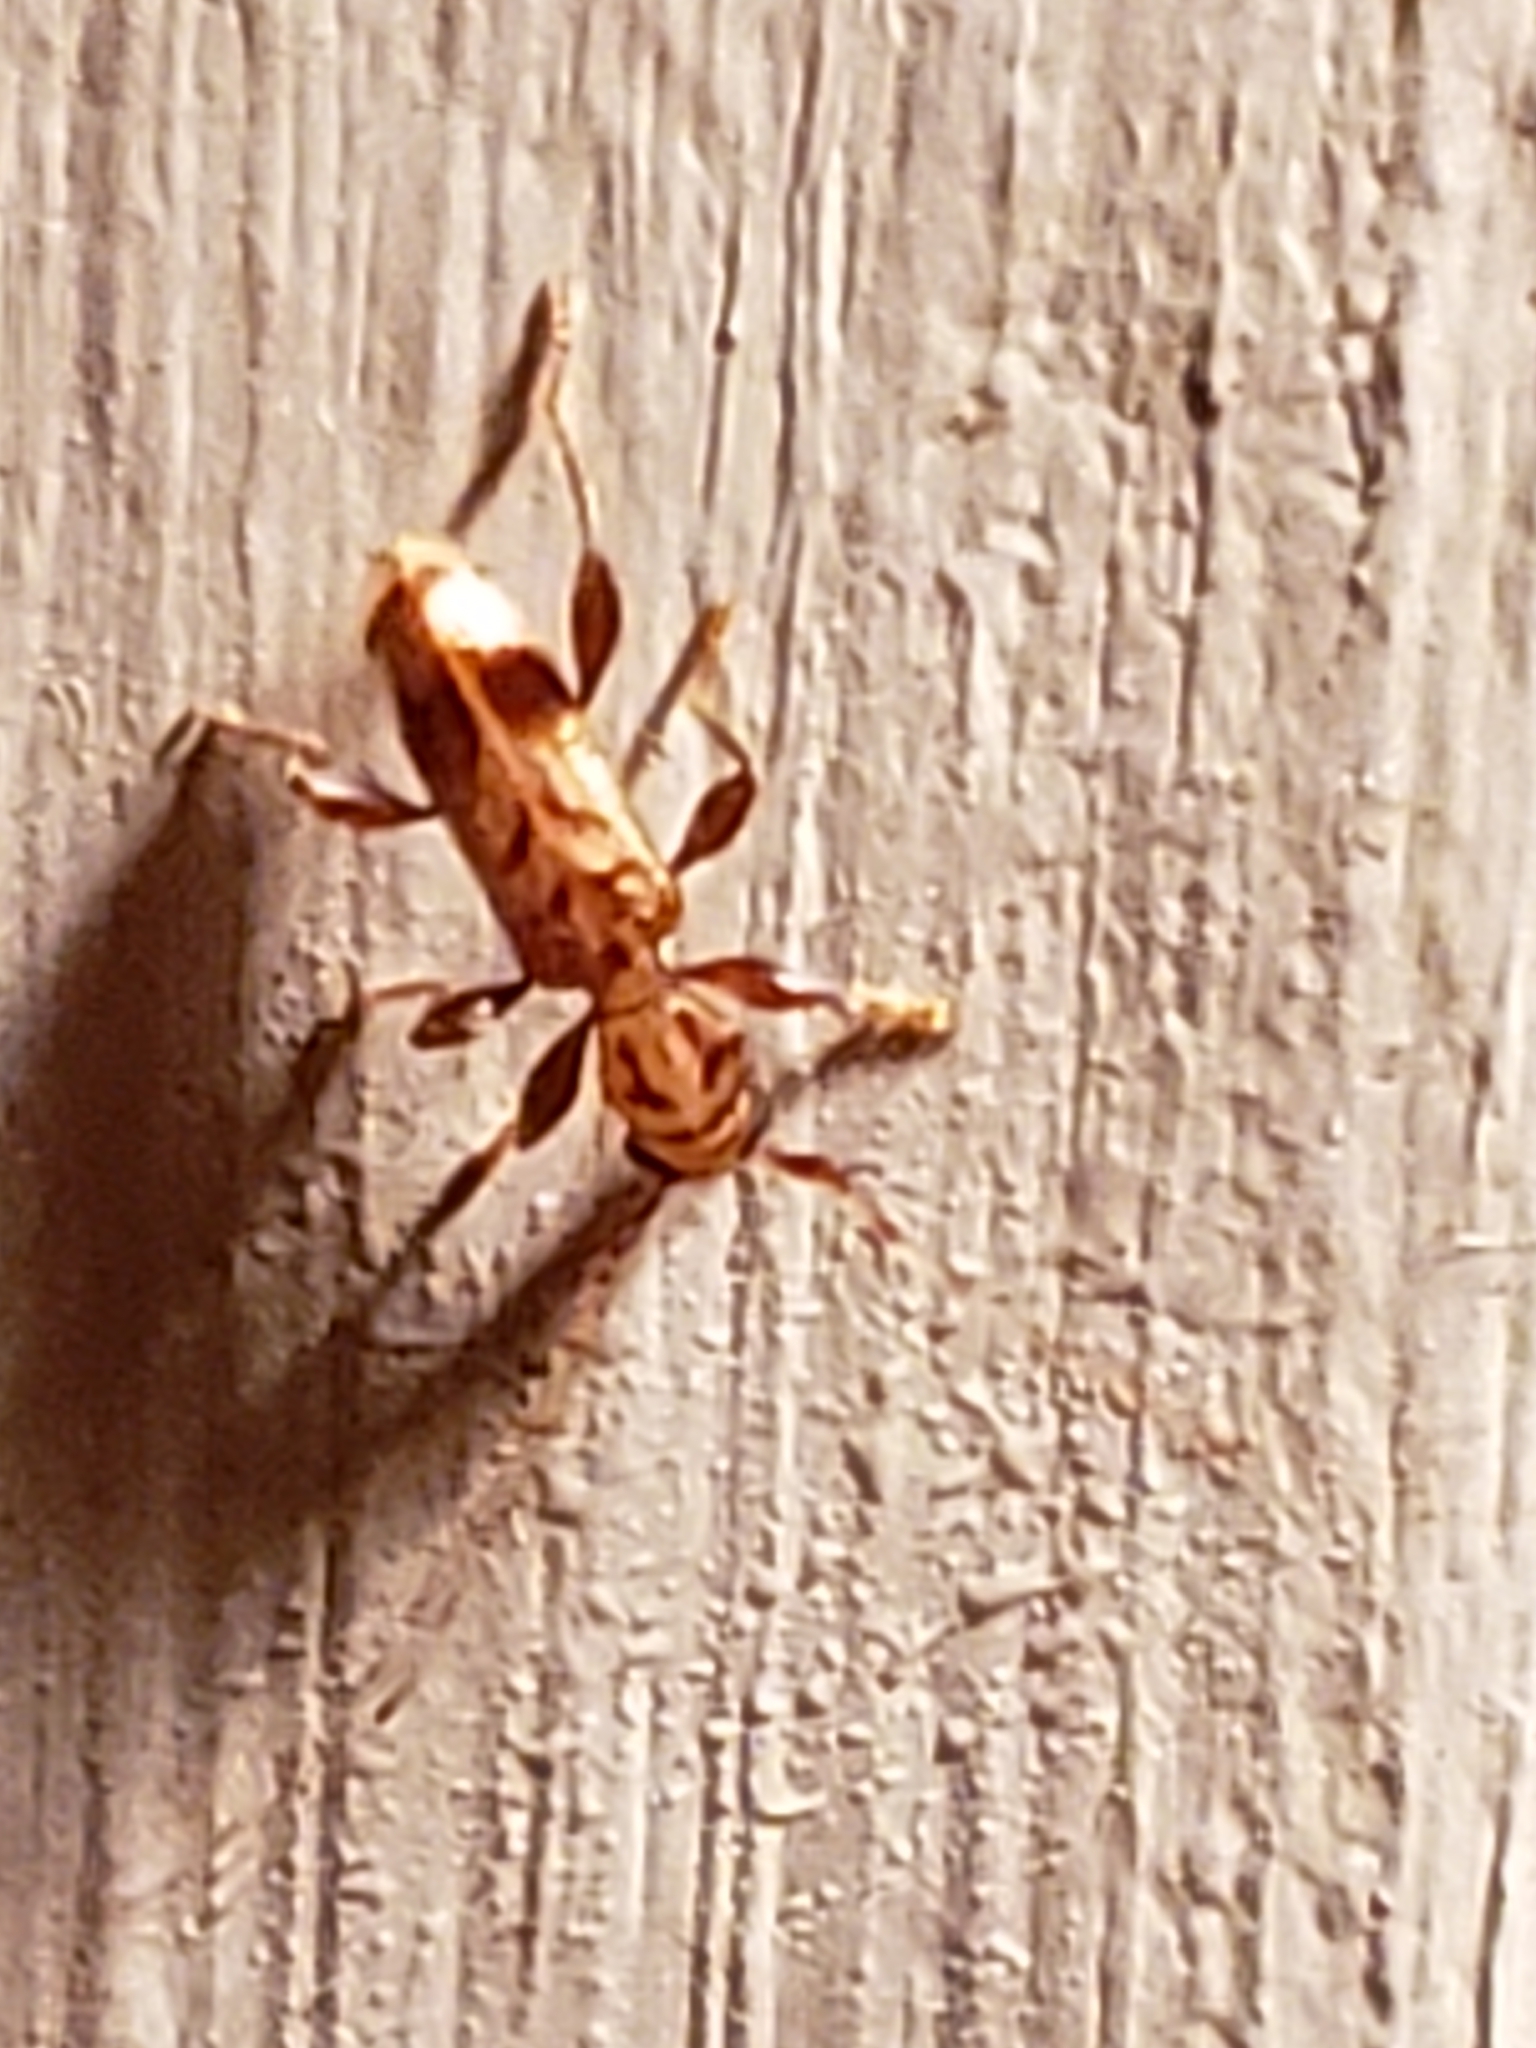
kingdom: Animalia
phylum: Arthropoda
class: Insecta
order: Coleoptera
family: Cerambycidae
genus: Obrium
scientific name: Obrium maculatum
